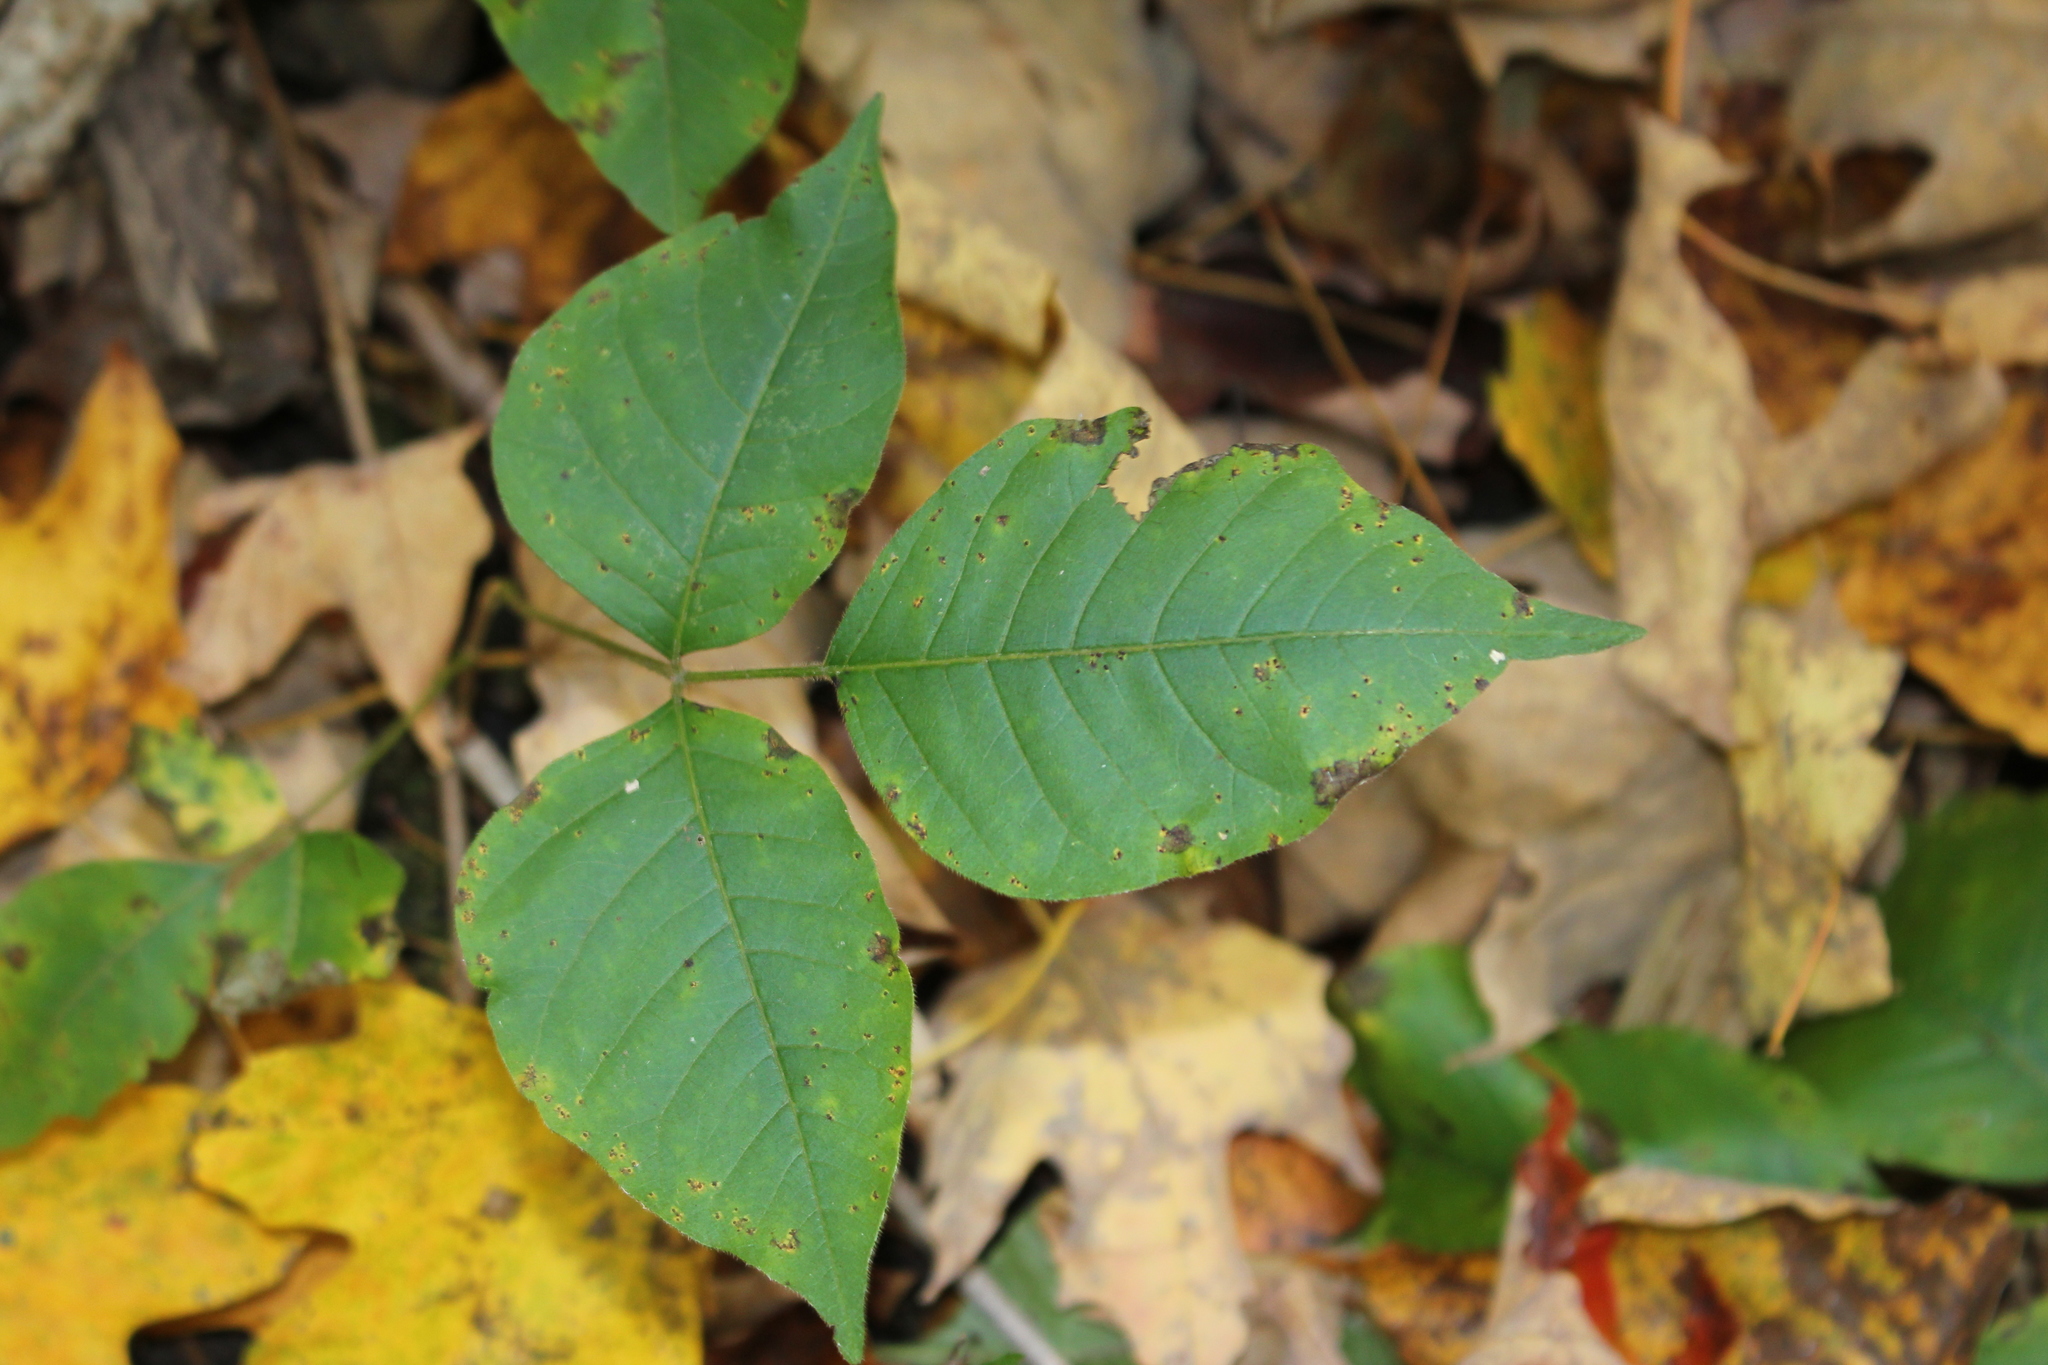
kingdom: Plantae
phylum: Tracheophyta
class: Magnoliopsida
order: Sapindales
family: Anacardiaceae
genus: Toxicodendron
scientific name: Toxicodendron radicans
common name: Poison ivy
